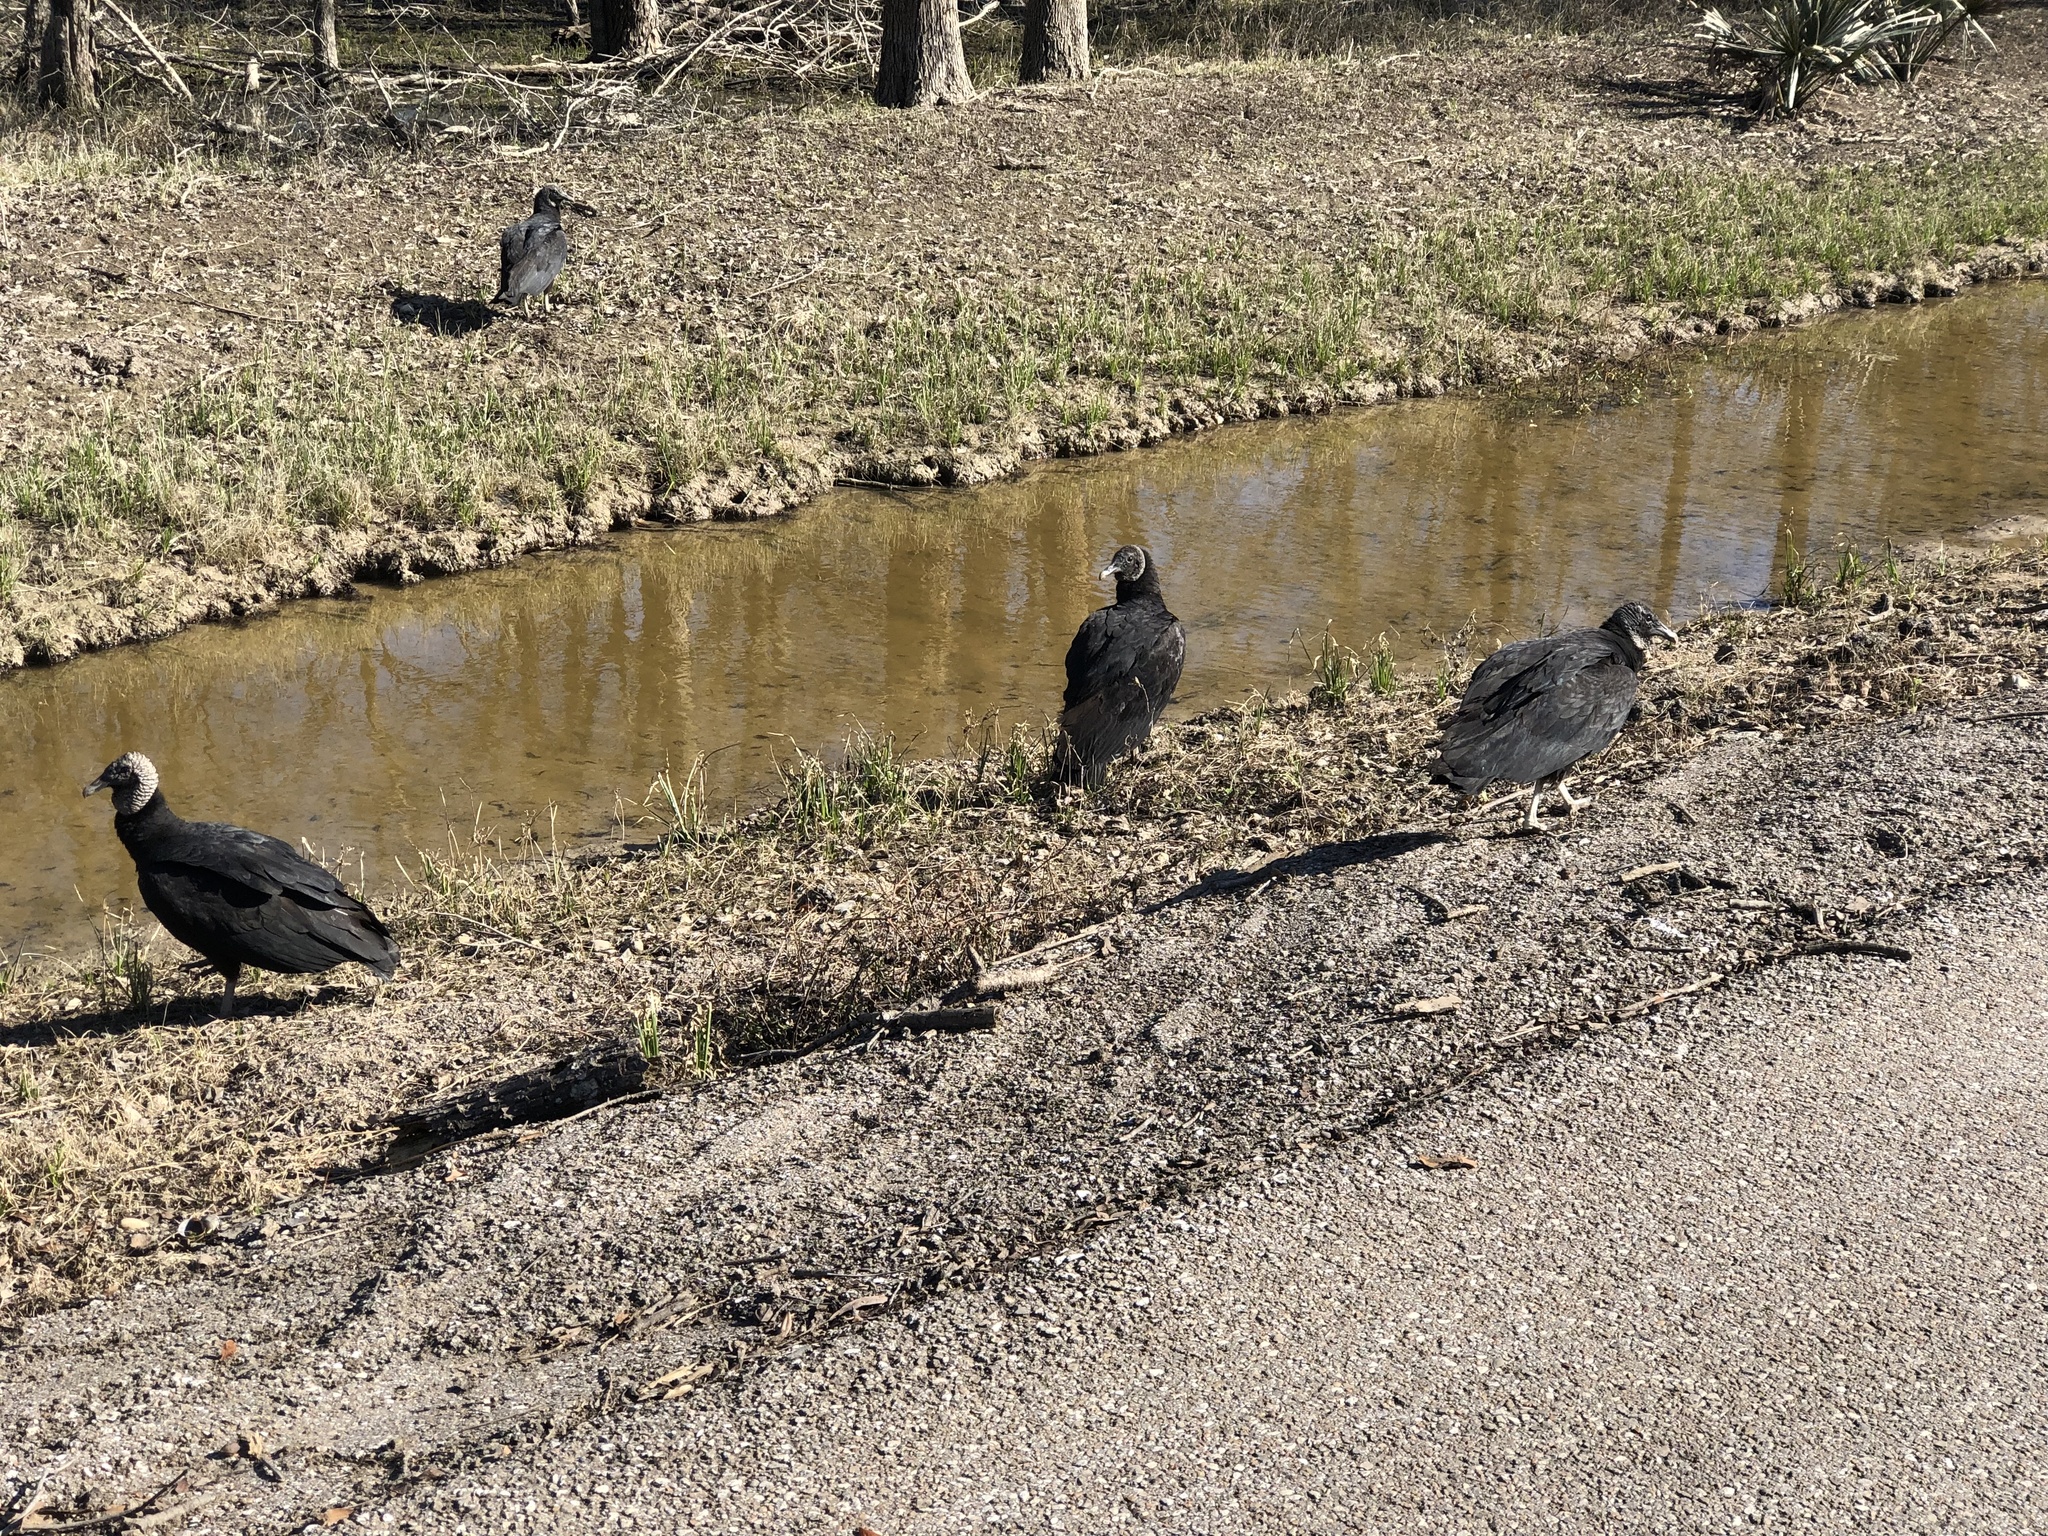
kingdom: Animalia
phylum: Chordata
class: Aves
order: Accipitriformes
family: Cathartidae
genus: Coragyps
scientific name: Coragyps atratus
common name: Black vulture
